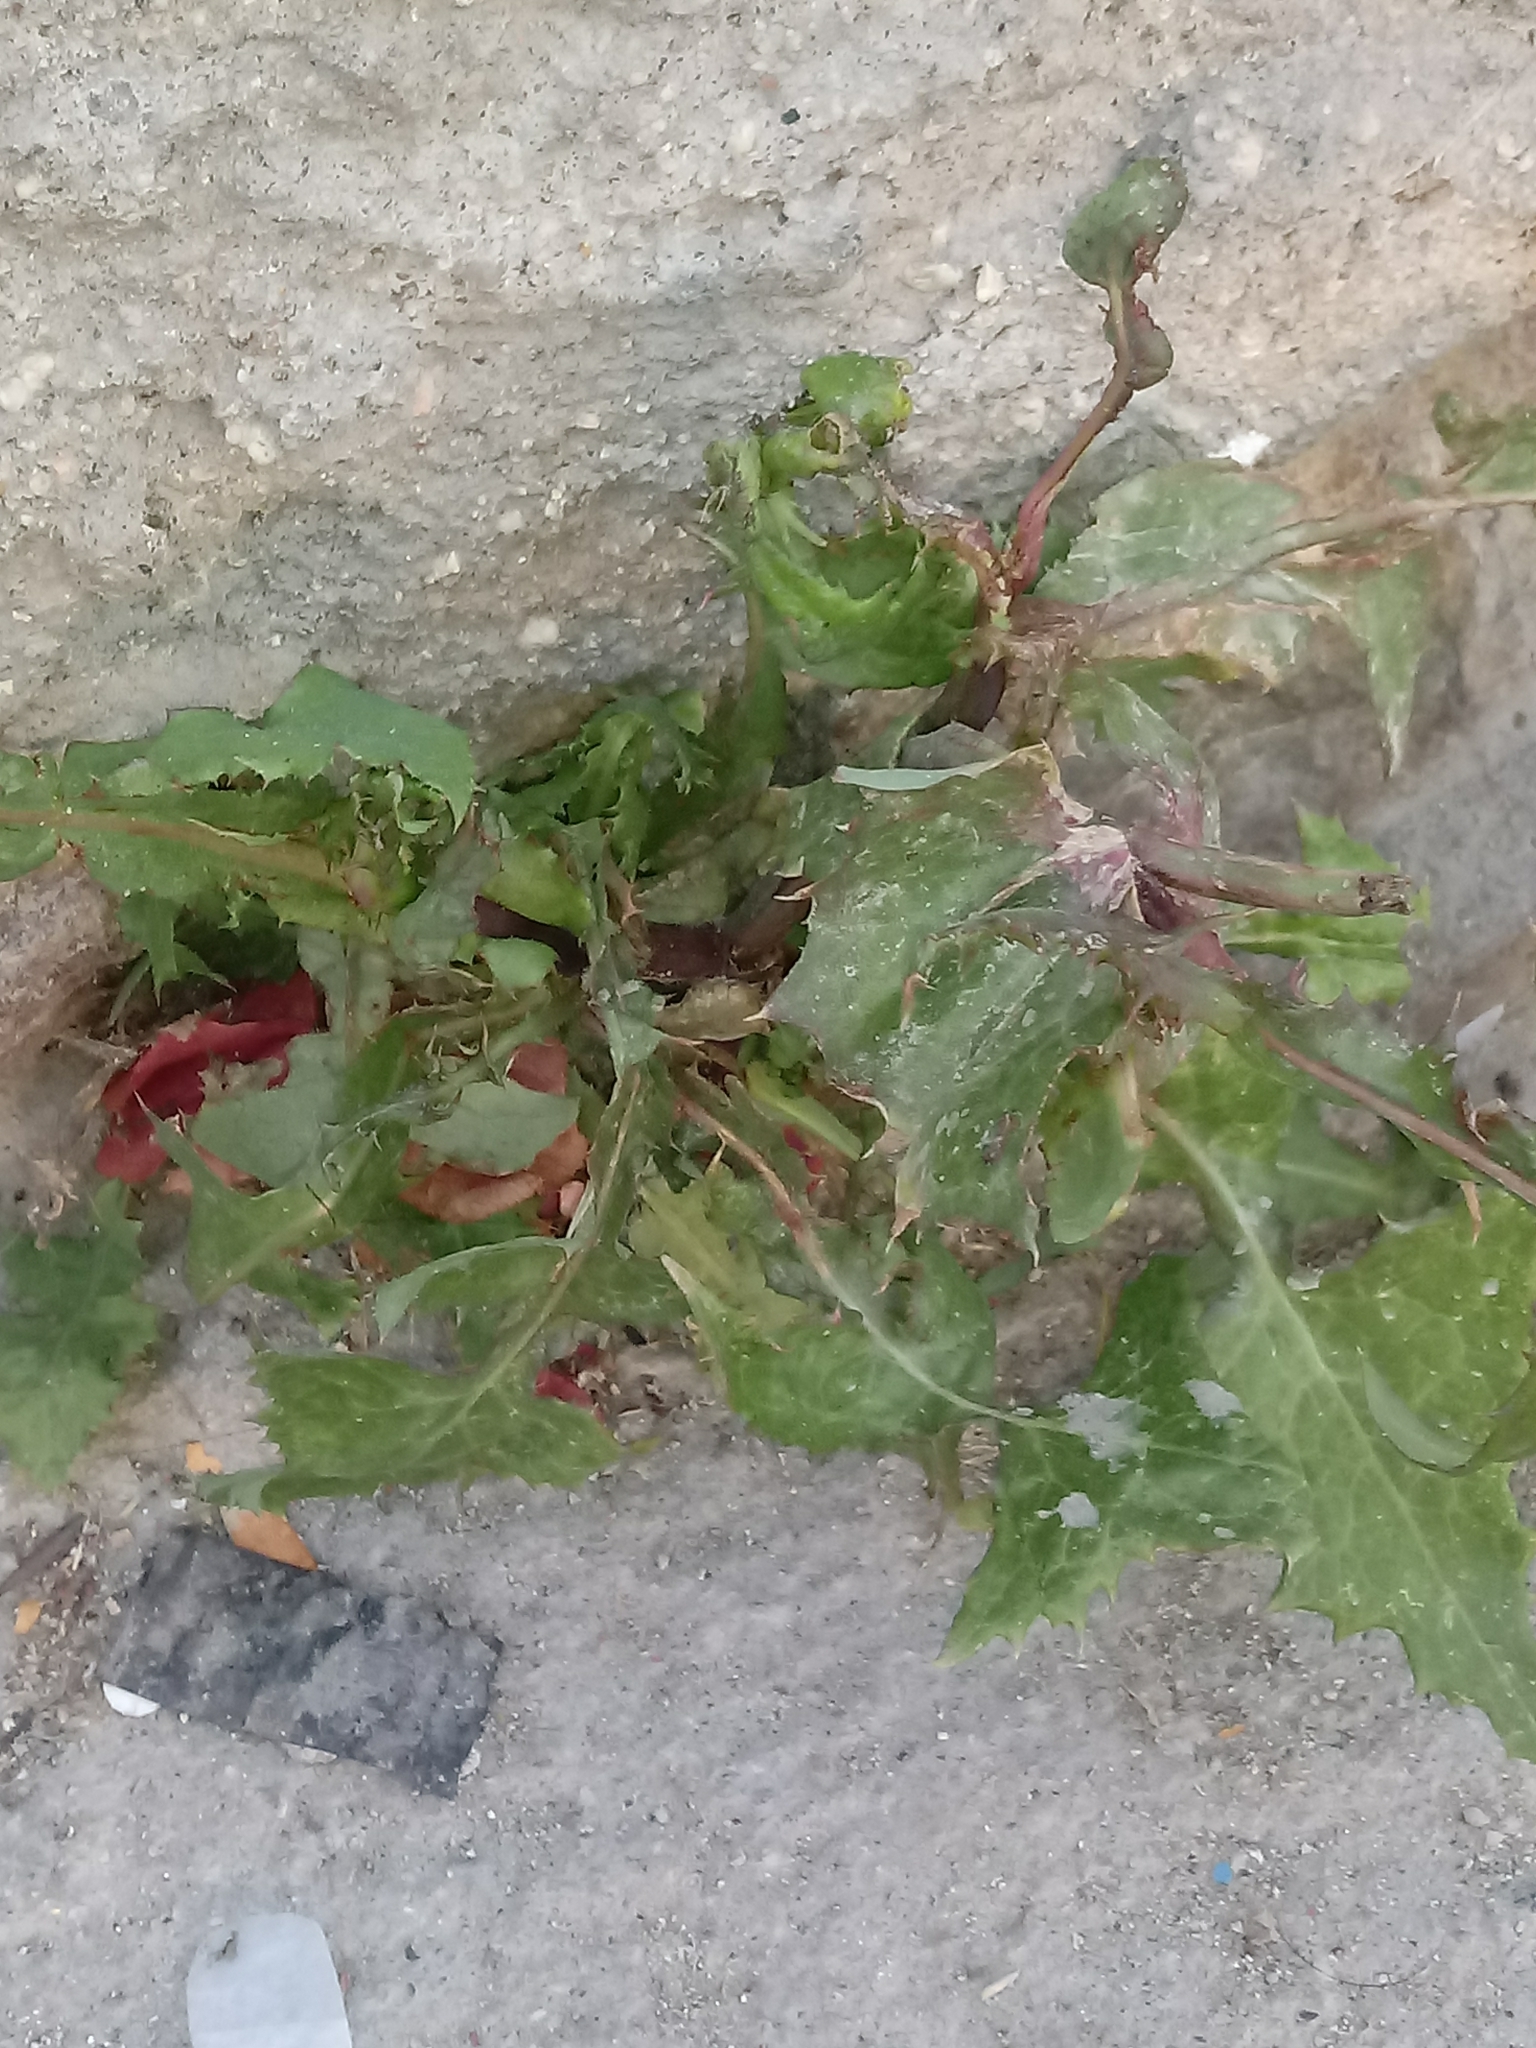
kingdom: Plantae
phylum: Tracheophyta
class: Magnoliopsida
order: Asterales
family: Asteraceae
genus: Sonchus
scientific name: Sonchus oleraceus
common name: Common sowthistle
